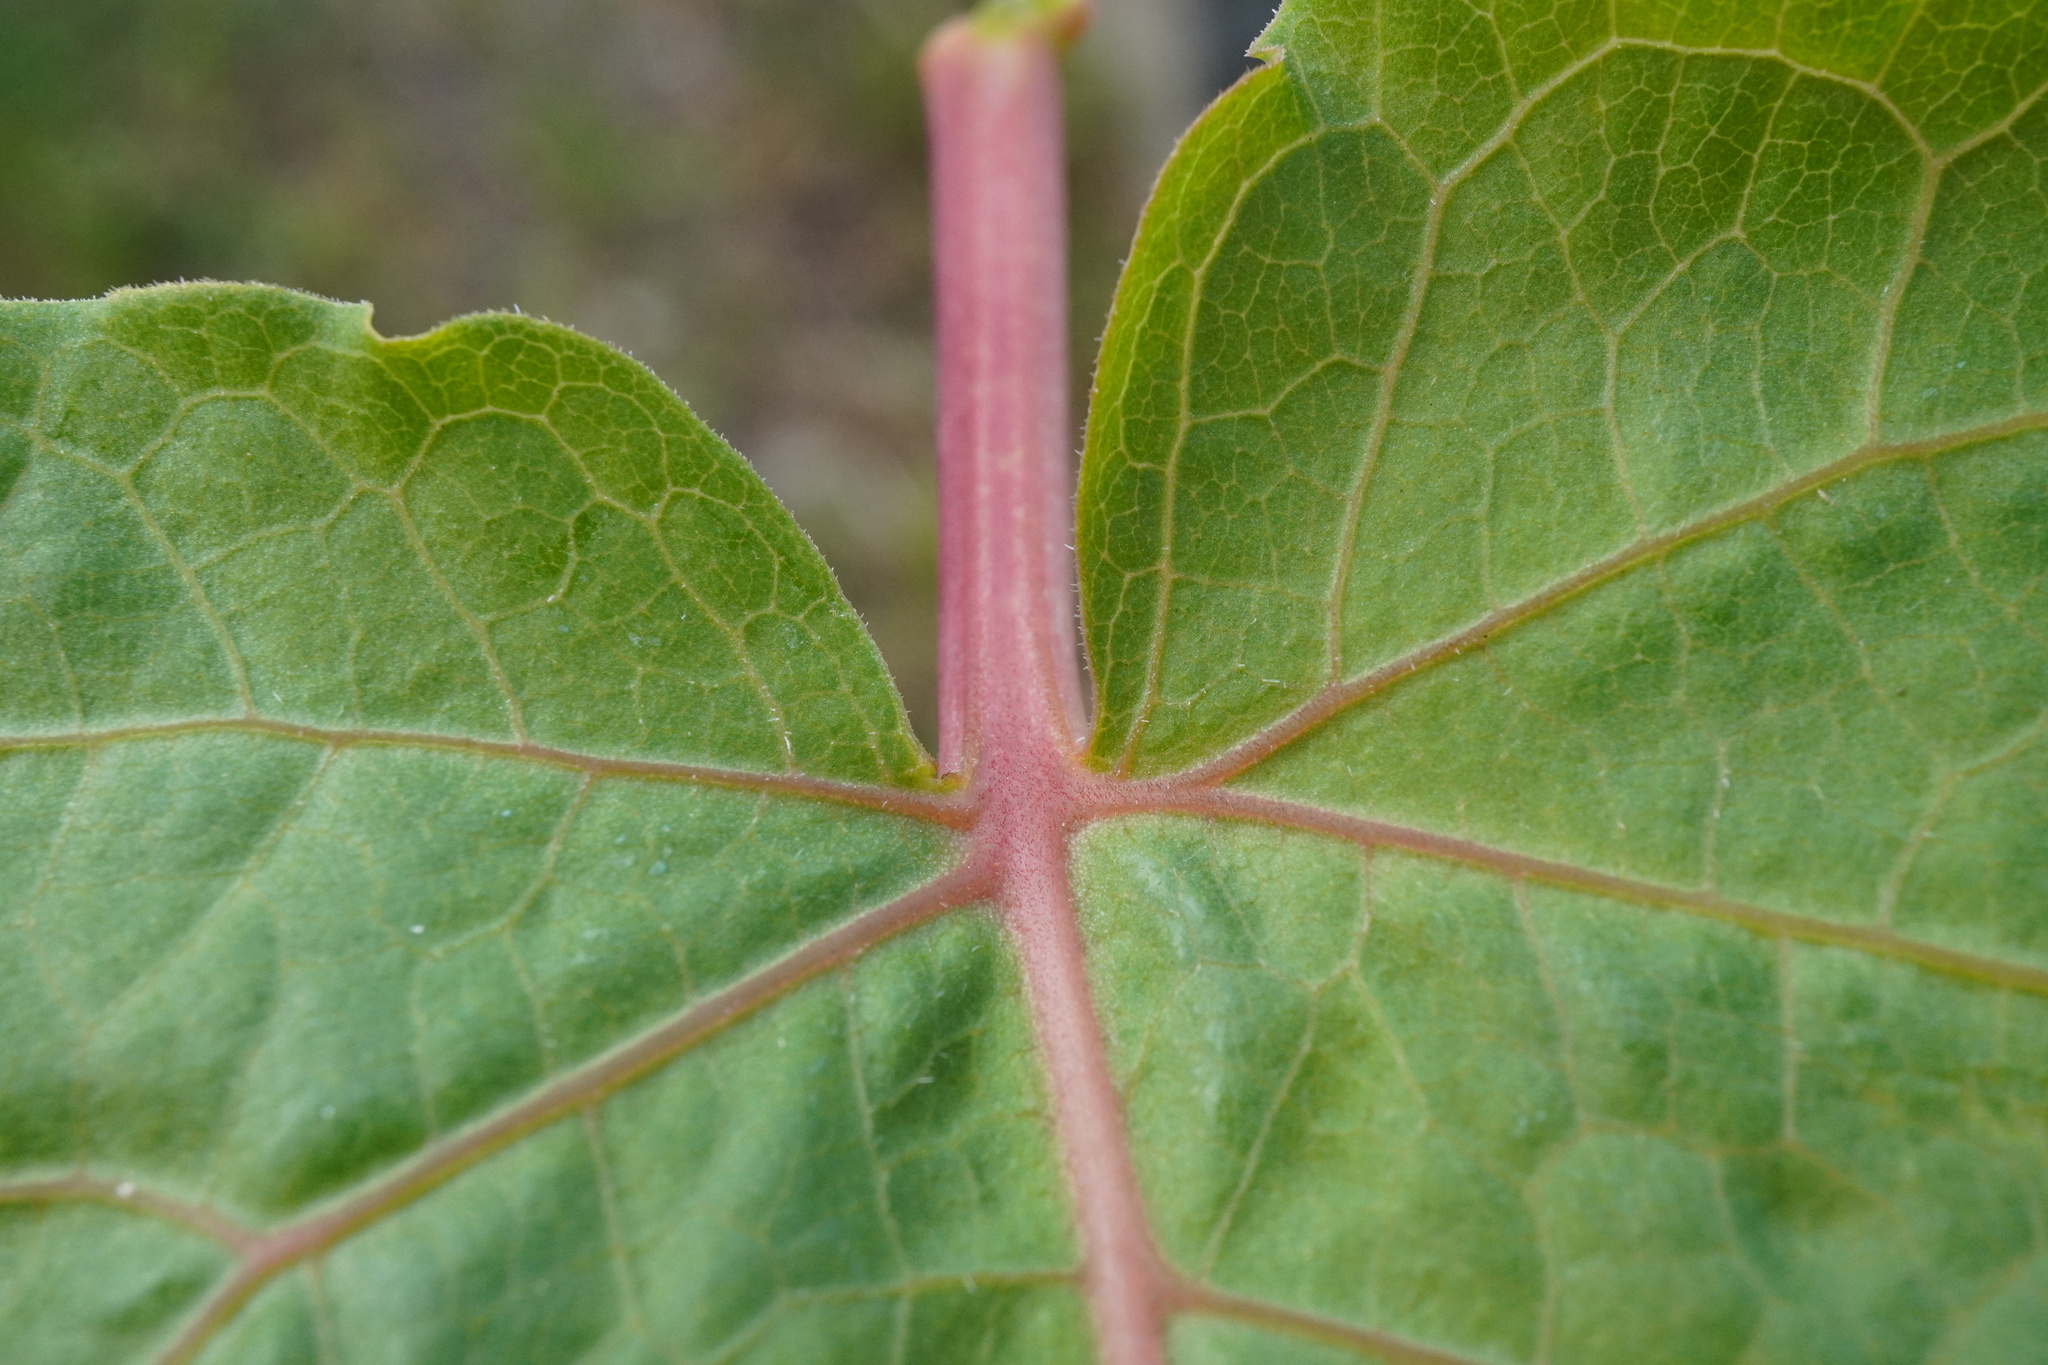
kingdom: Plantae
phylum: Tracheophyta
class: Magnoliopsida
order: Caryophyllales
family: Polygonaceae
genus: Reynoutria
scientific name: Reynoutria sachalinensis
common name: Giant knotweed
